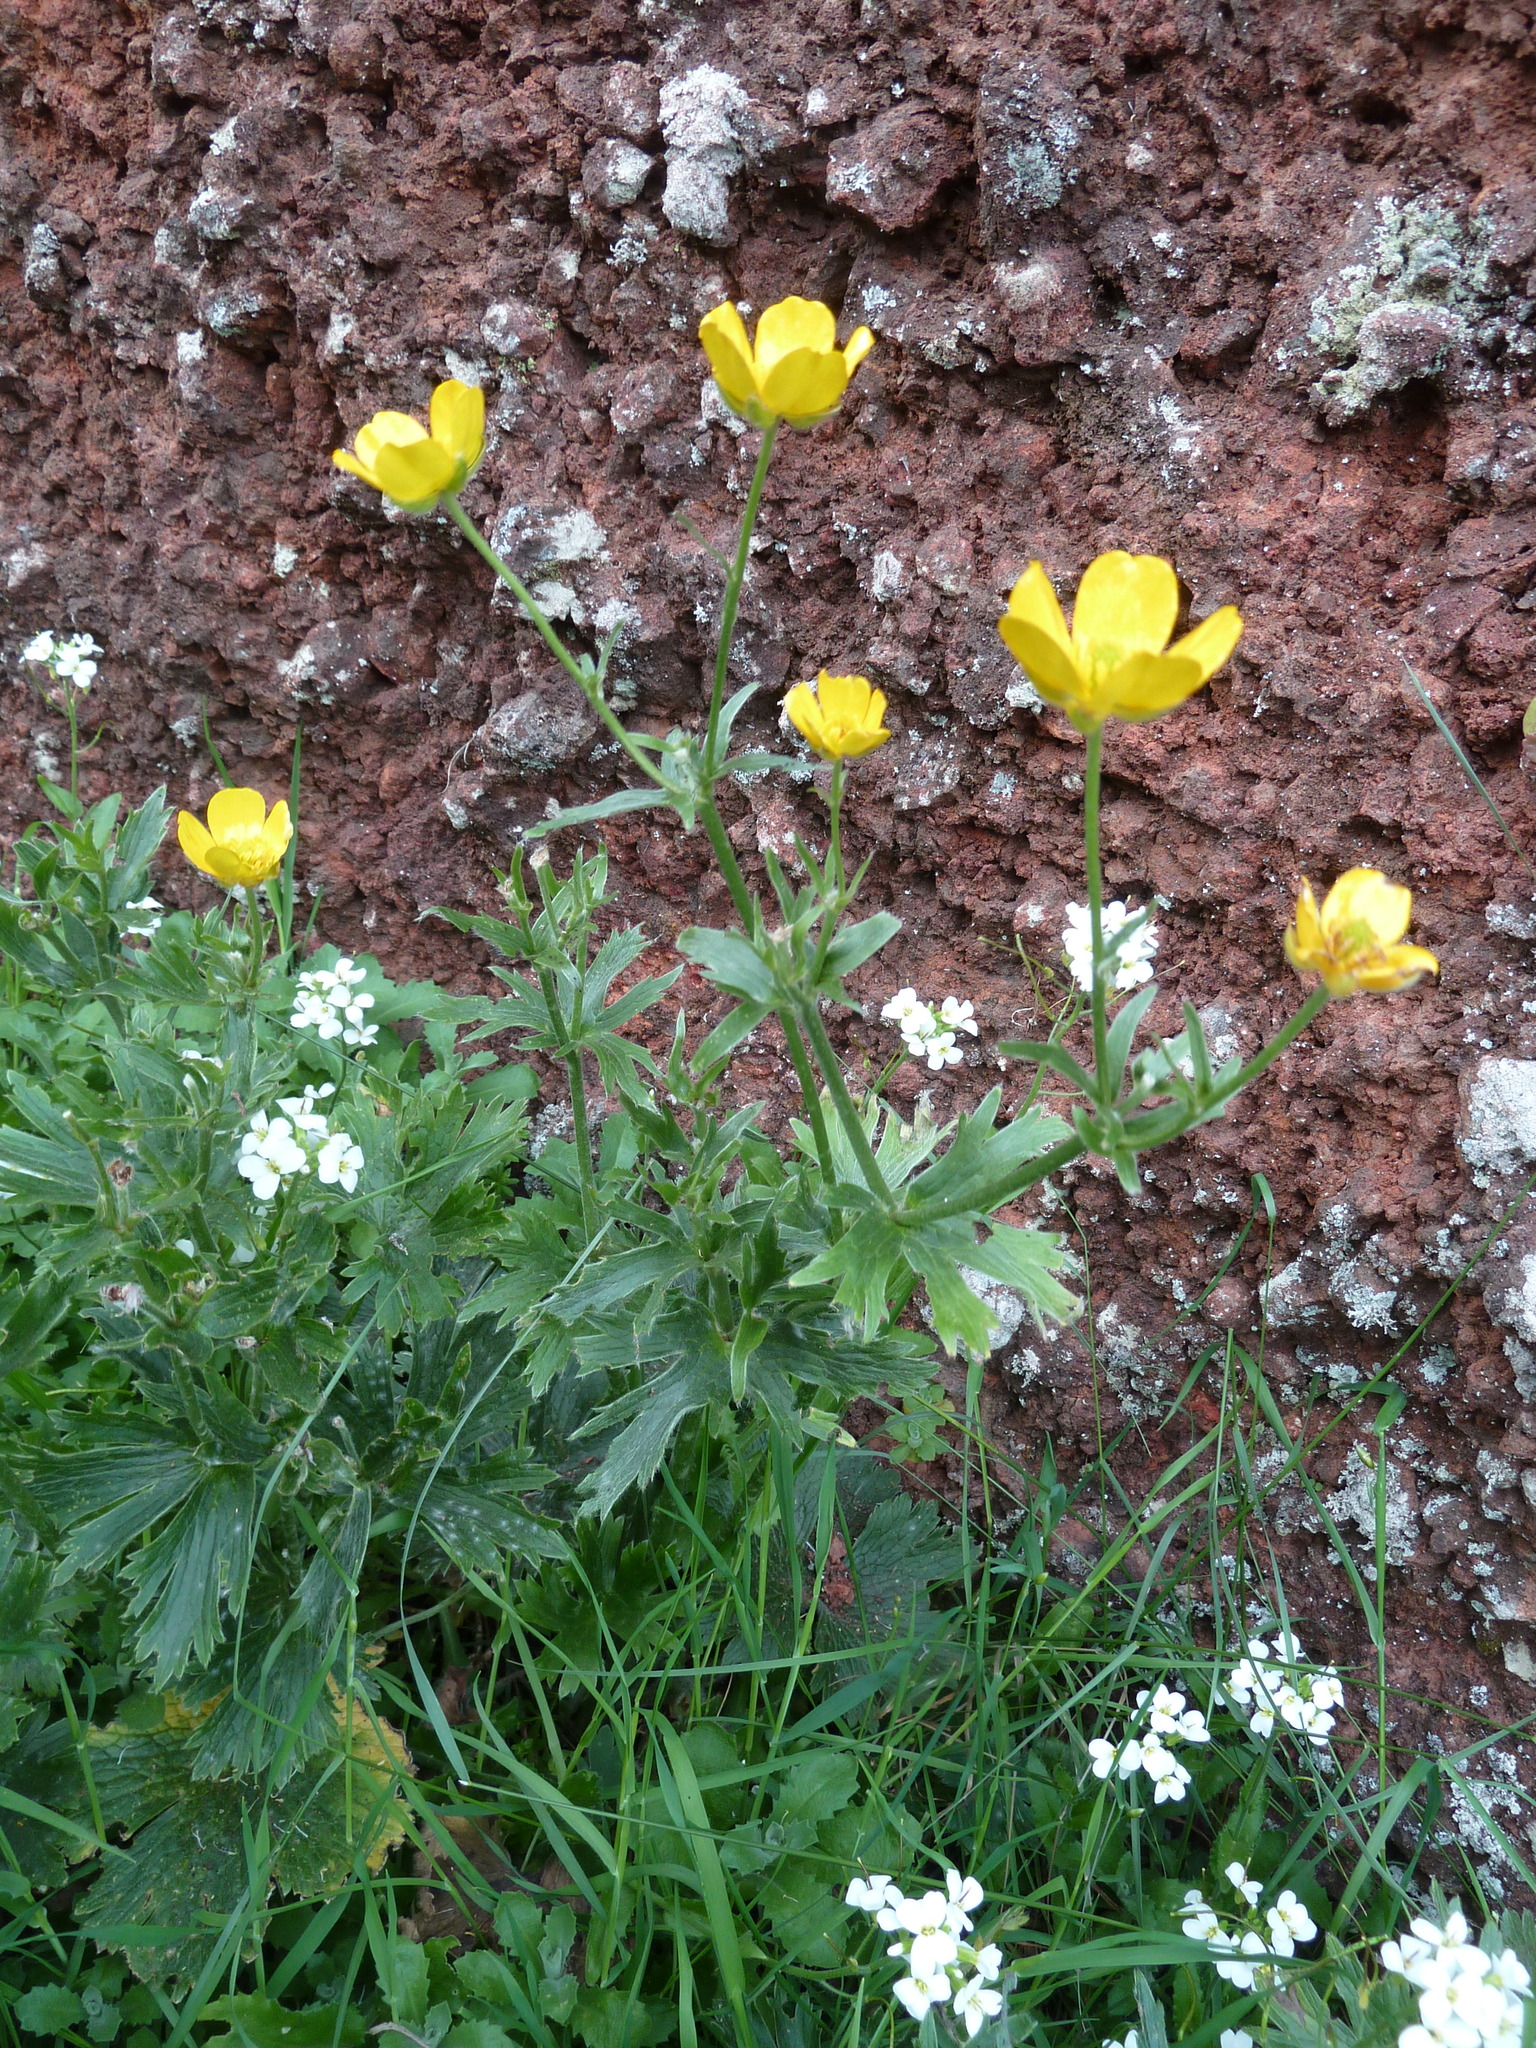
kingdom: Plantae
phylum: Tracheophyta
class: Magnoliopsida
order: Ranunculales
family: Ranunculaceae
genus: Ranunculus
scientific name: Ranunculus cortusifolius
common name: Azores buttercup
